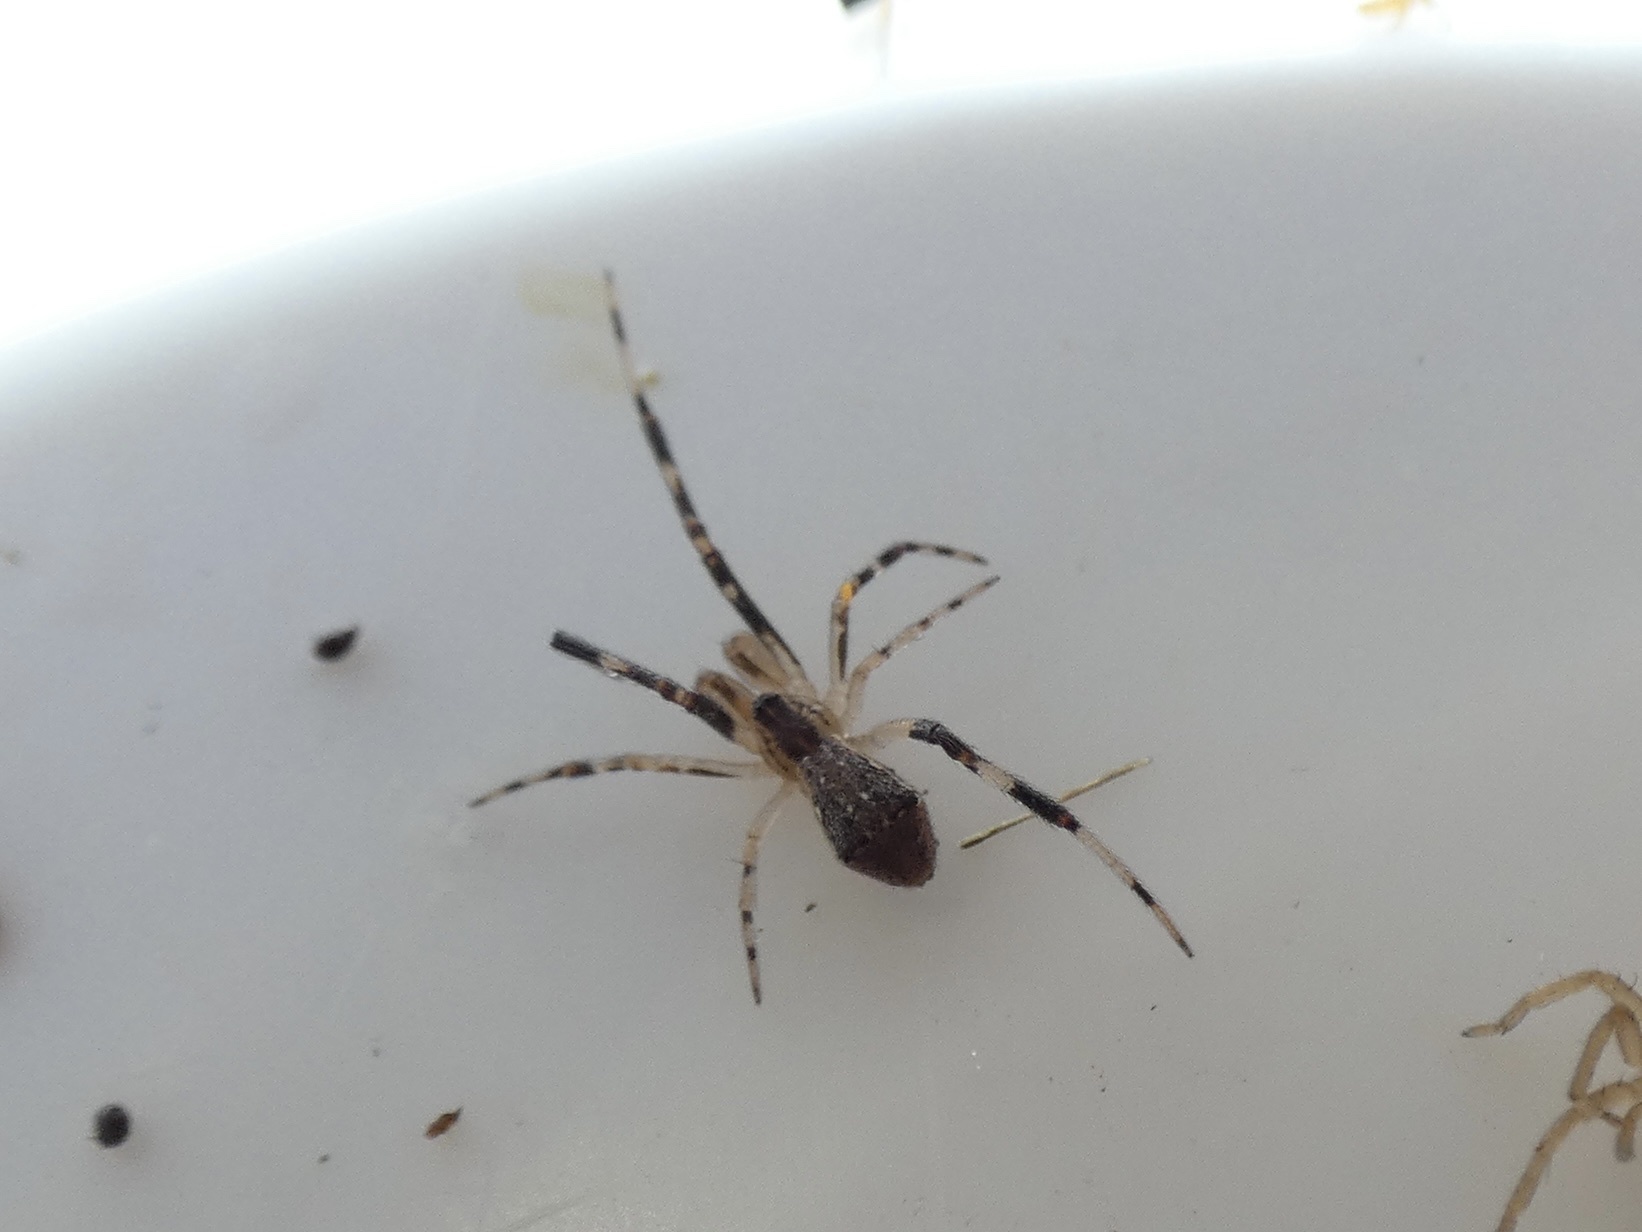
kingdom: Animalia
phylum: Arthropoda
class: Arachnida
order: Araneae
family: Theridiidae
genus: Episinus
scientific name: Episinus angulatus
